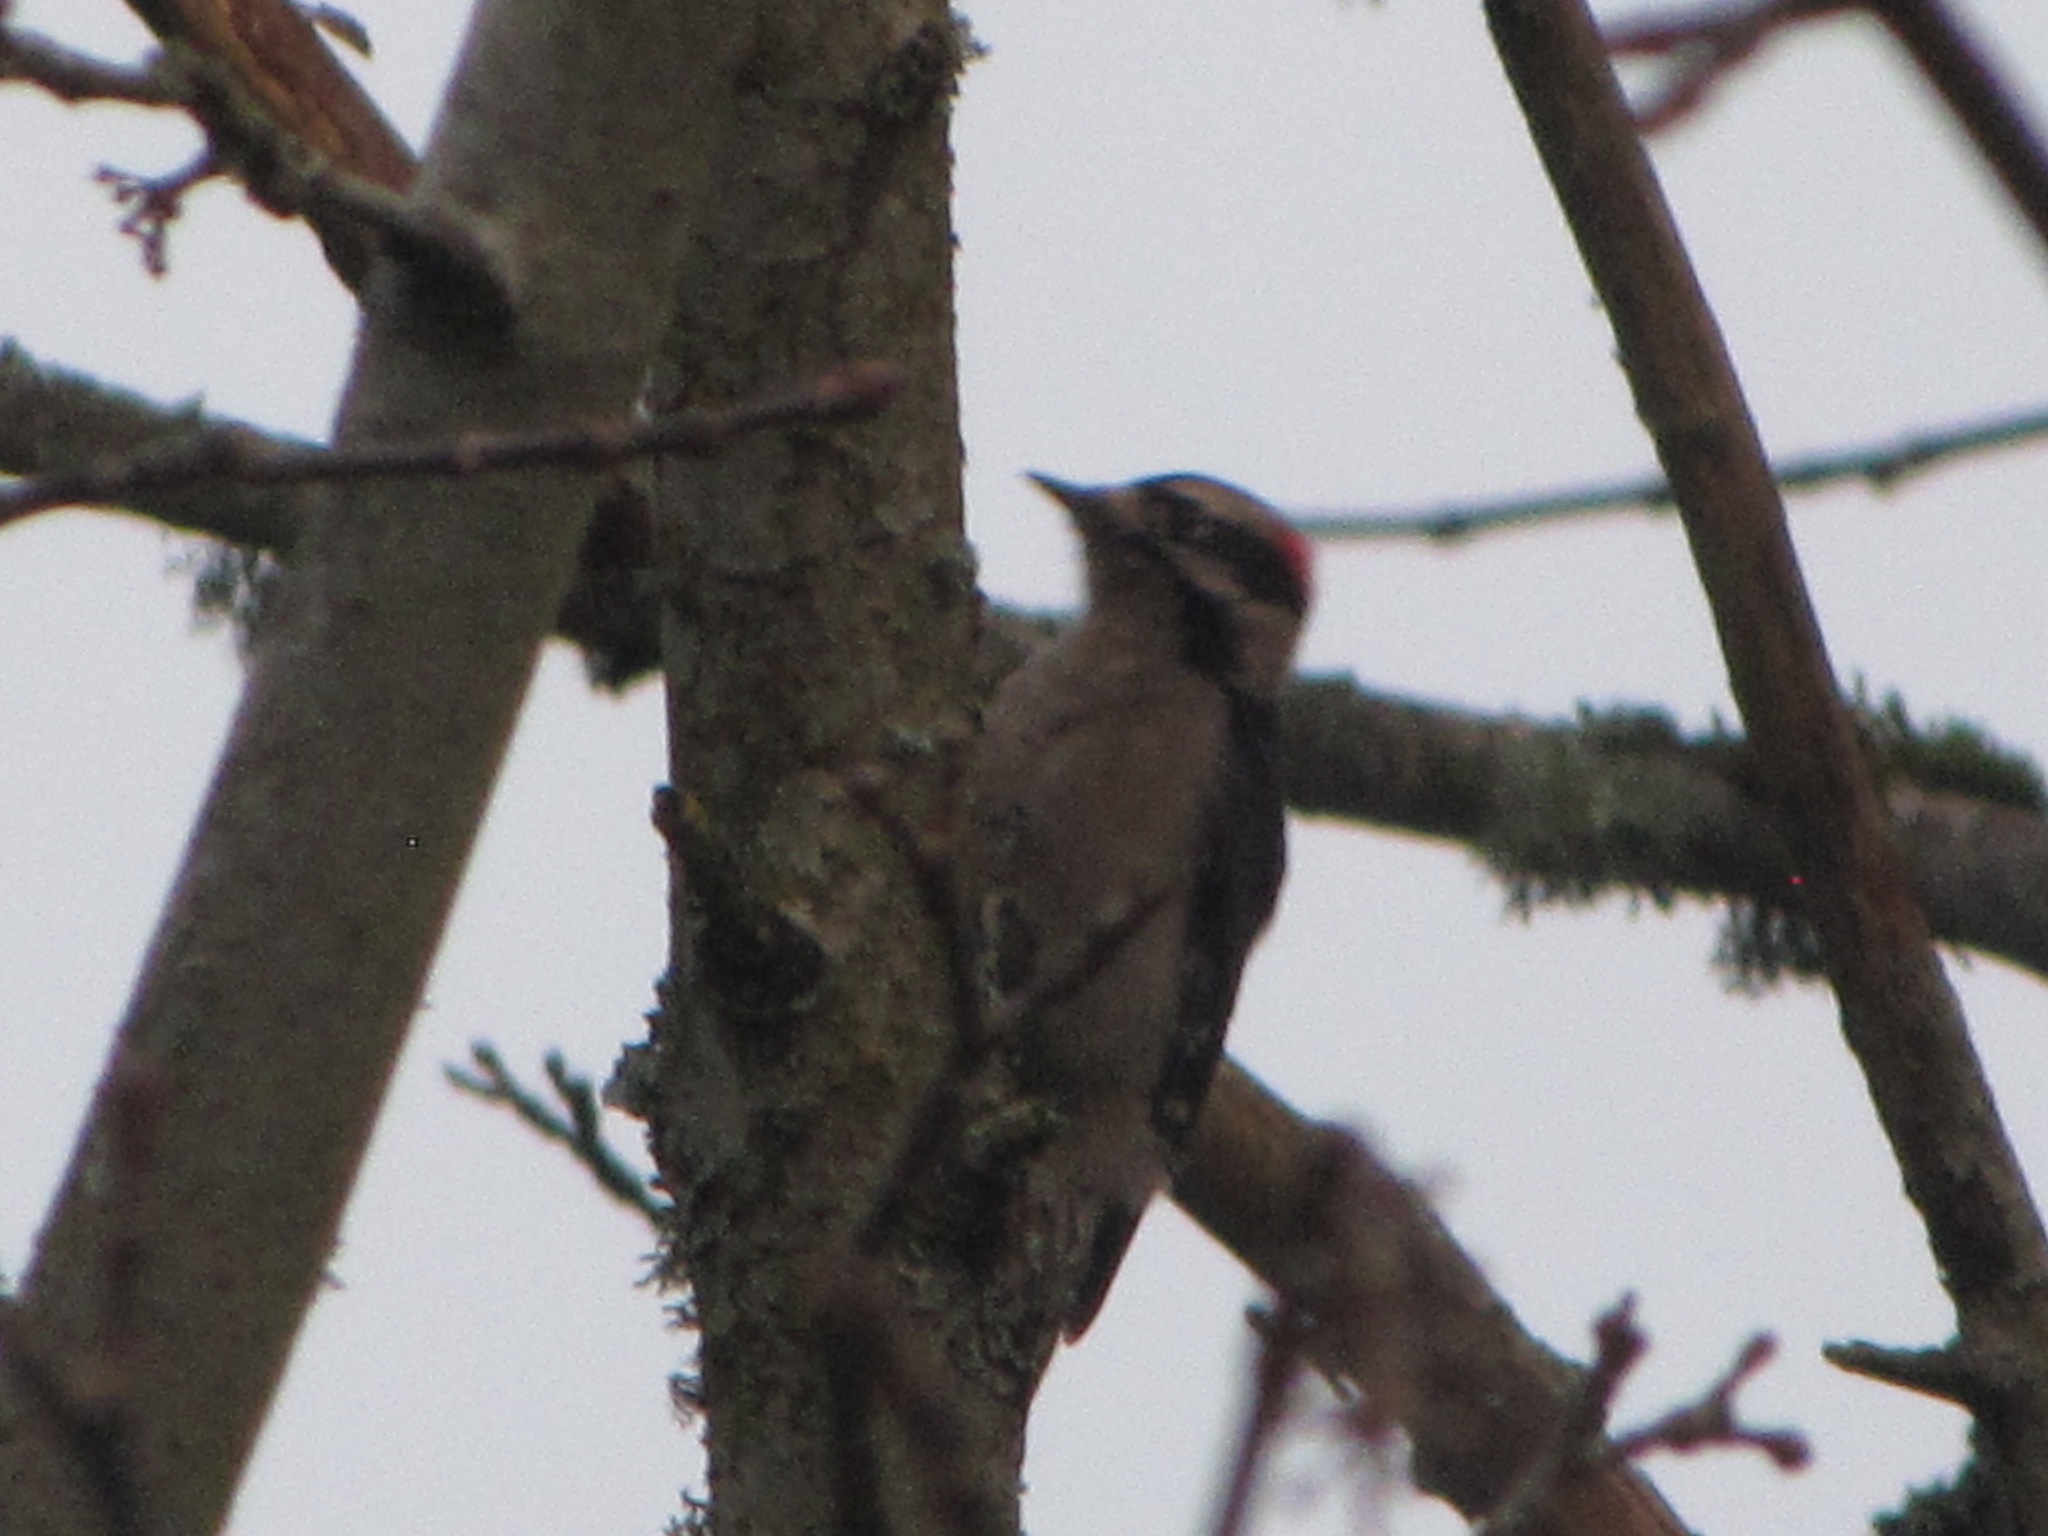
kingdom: Animalia
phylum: Chordata
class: Aves
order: Piciformes
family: Picidae
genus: Dryobates
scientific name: Dryobates pubescens
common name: Downy woodpecker
